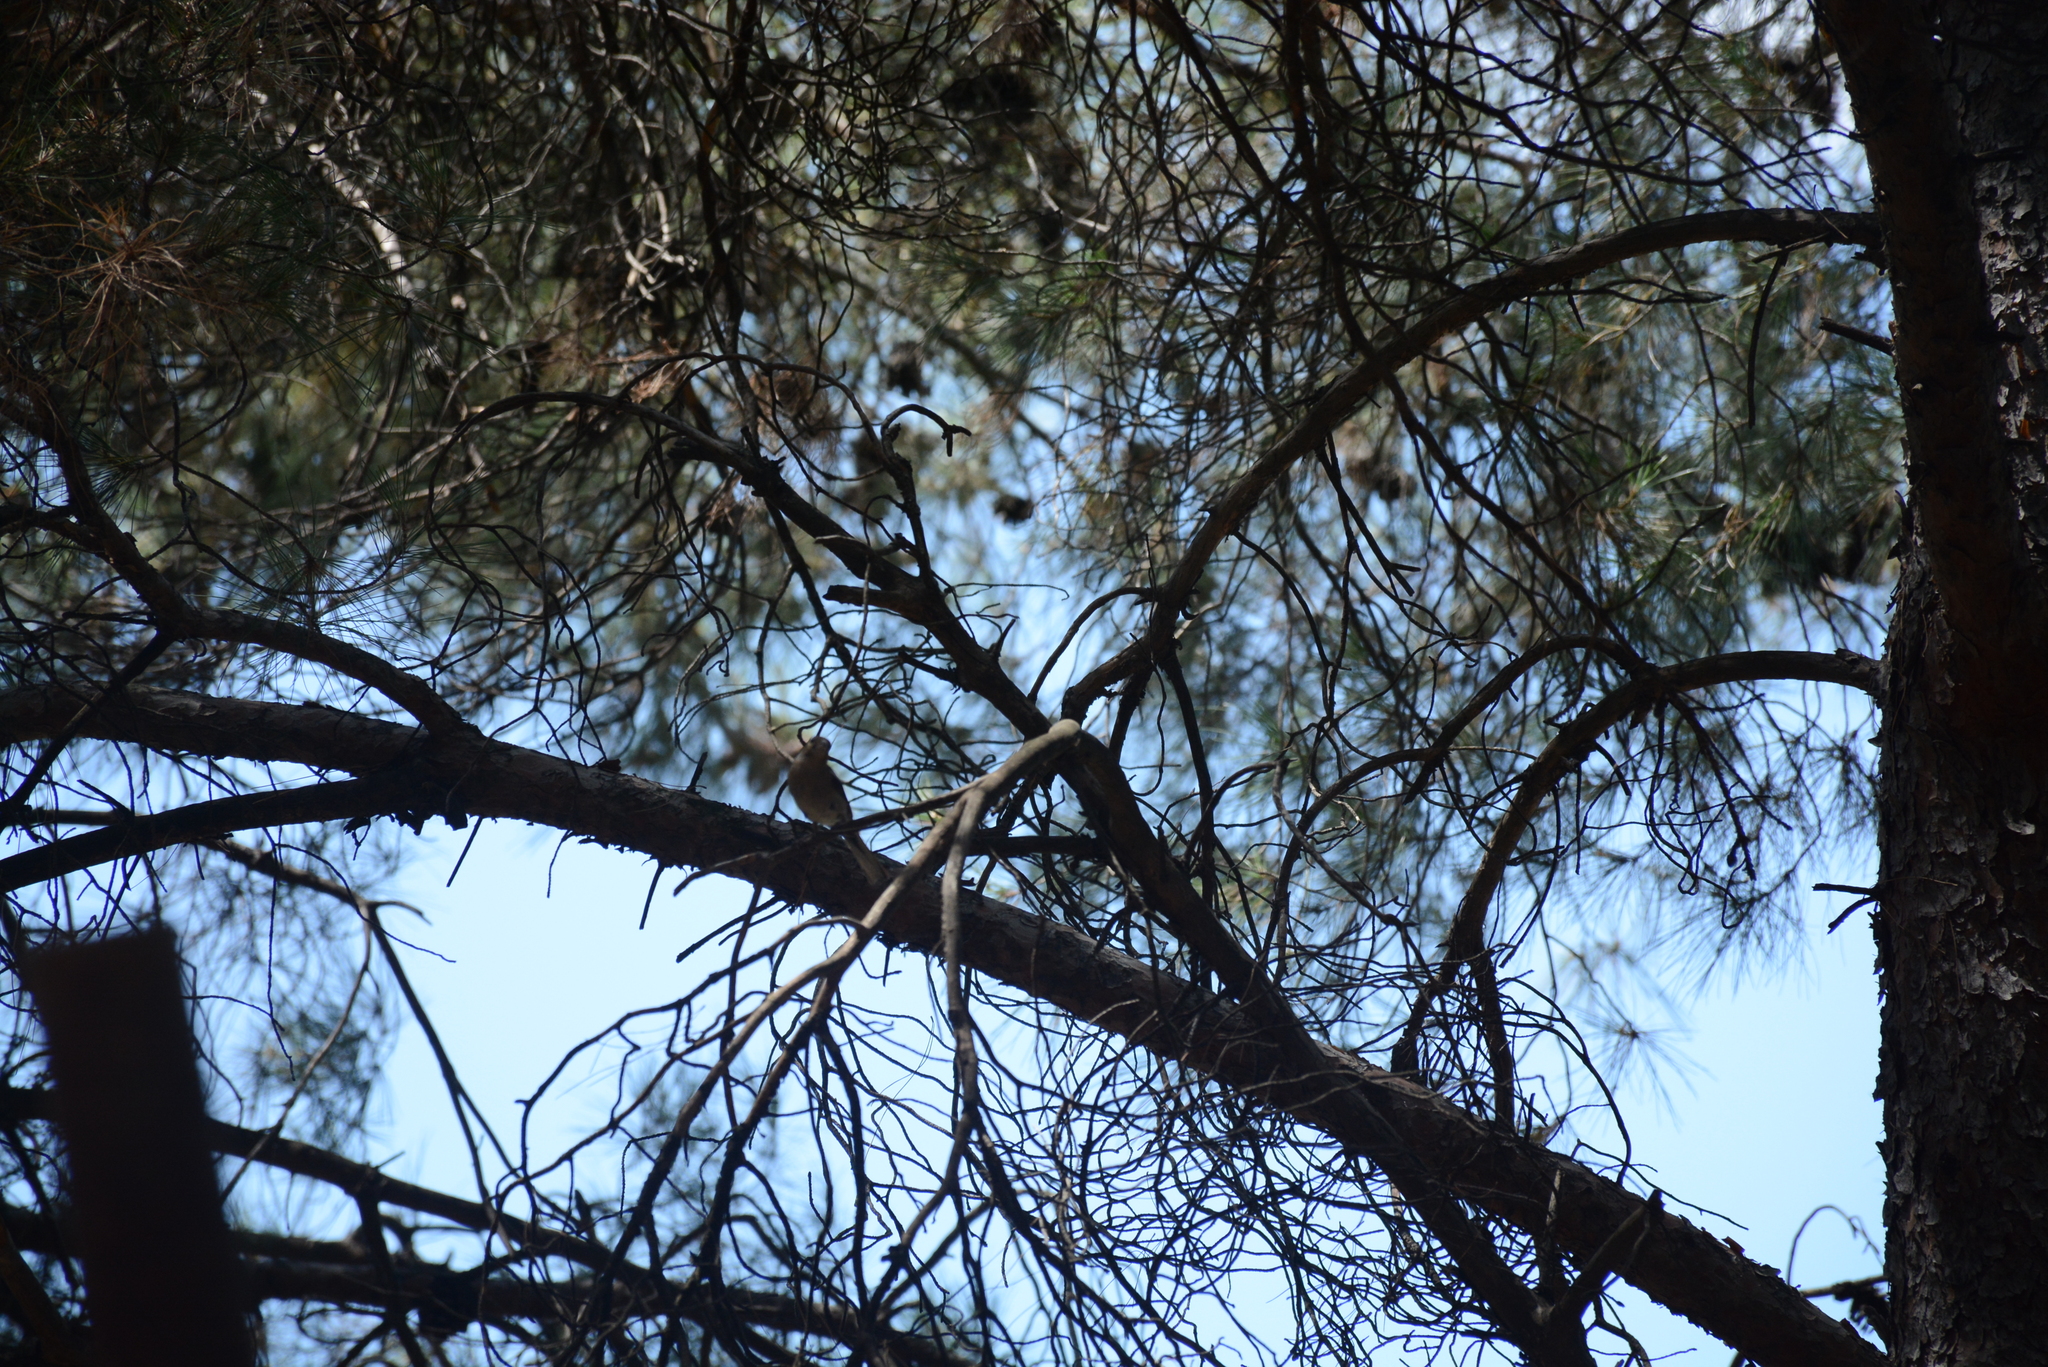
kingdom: Animalia
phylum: Chordata
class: Aves
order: Passeriformes
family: Corvidae
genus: Garrulus
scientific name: Garrulus glandarius
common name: Eurasian jay
